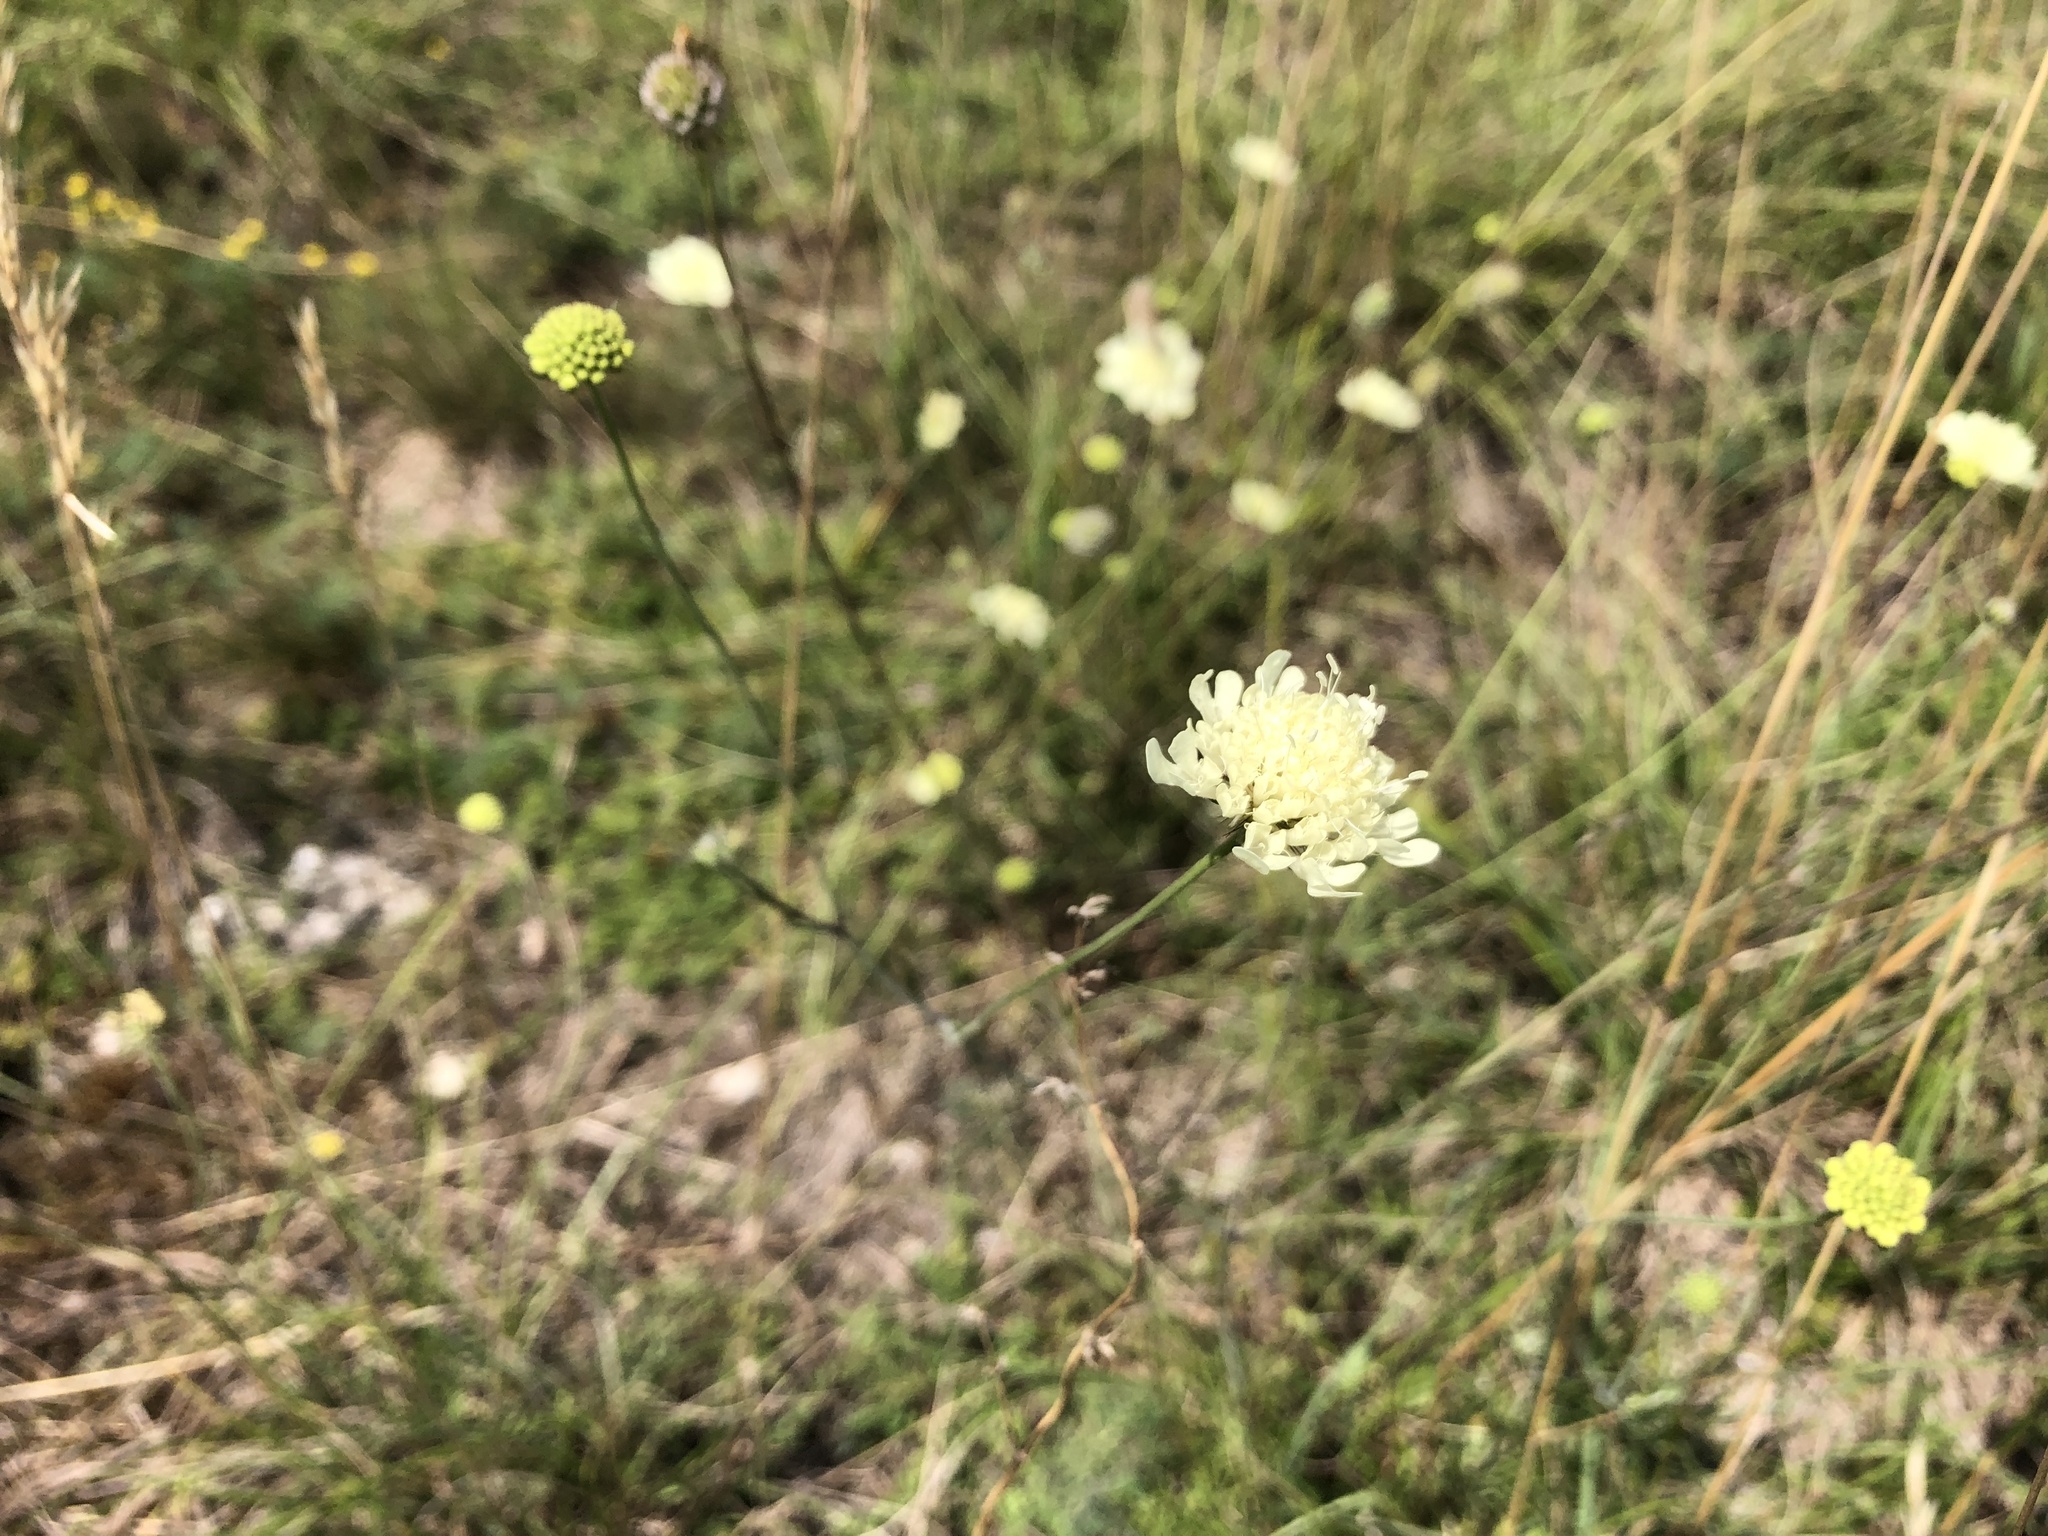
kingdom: Plantae
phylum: Tracheophyta
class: Magnoliopsida
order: Dipsacales
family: Caprifoliaceae
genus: Scabiosa
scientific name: Scabiosa ochroleuca
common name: Cream pincushions
